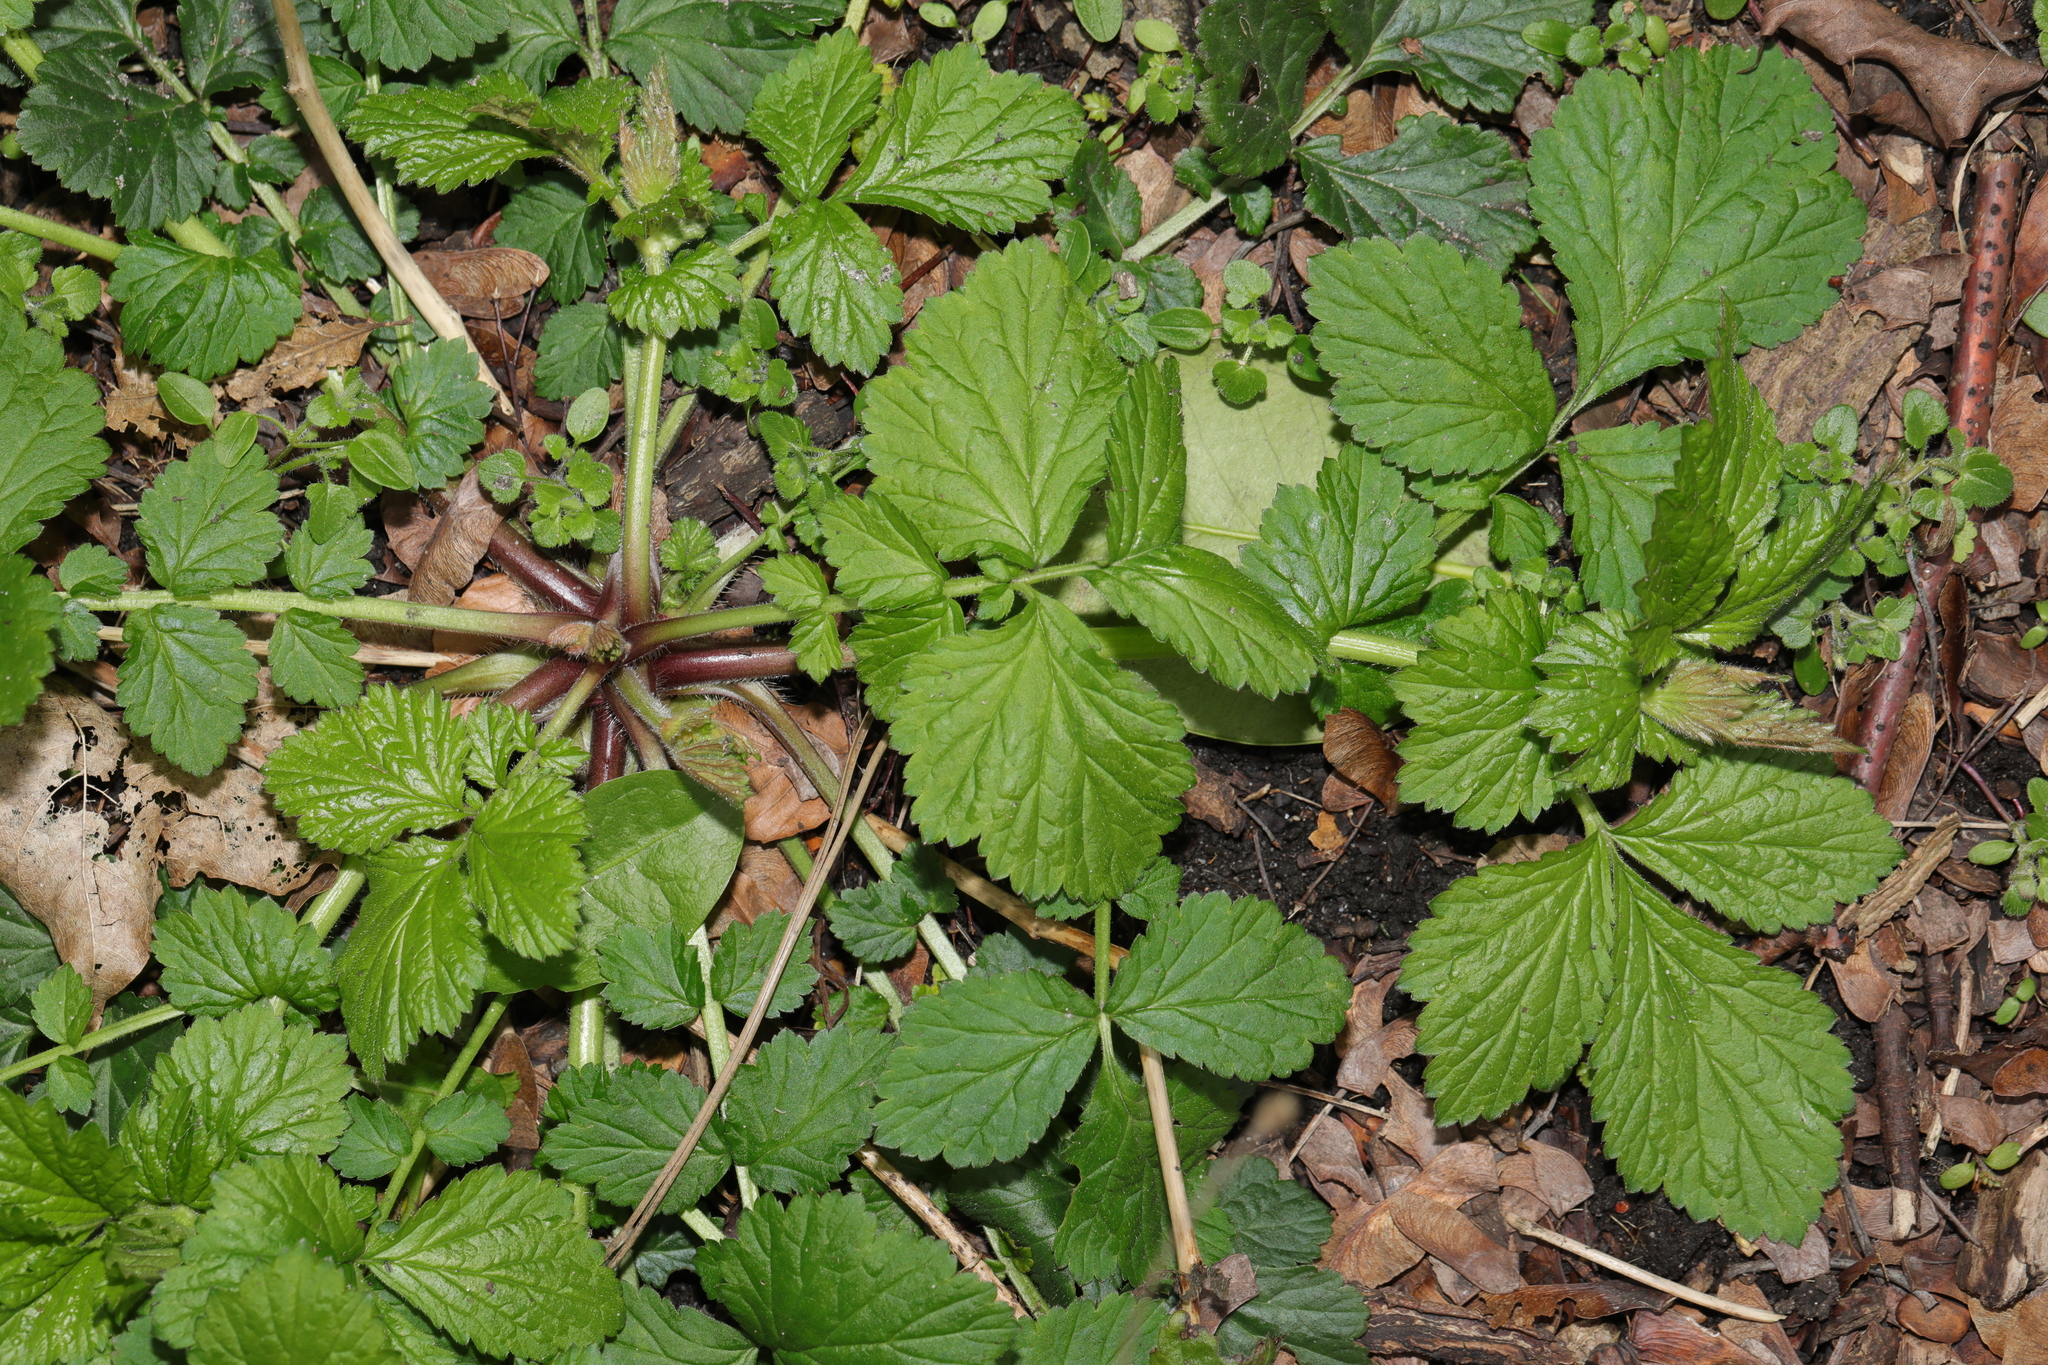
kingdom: Plantae
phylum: Tracheophyta
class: Magnoliopsida
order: Rosales
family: Rosaceae
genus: Geum
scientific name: Geum urbanum
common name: Wood avens
